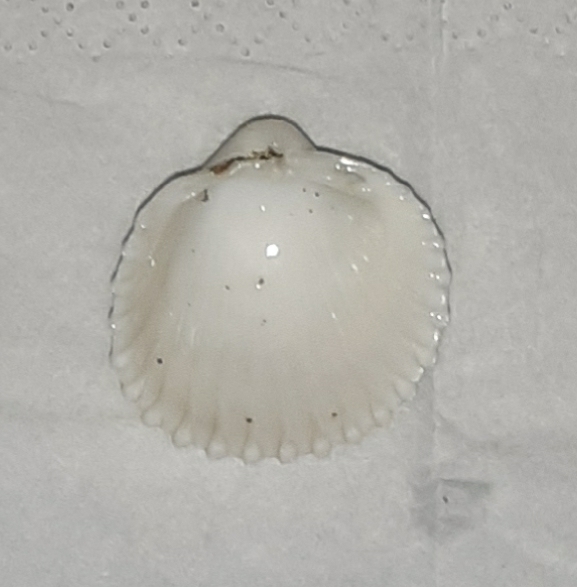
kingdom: Animalia
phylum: Mollusca
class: Bivalvia
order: Cardiida
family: Cardiidae
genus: Acanthocardia
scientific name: Acanthocardia tuberculata
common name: Rough cockle
